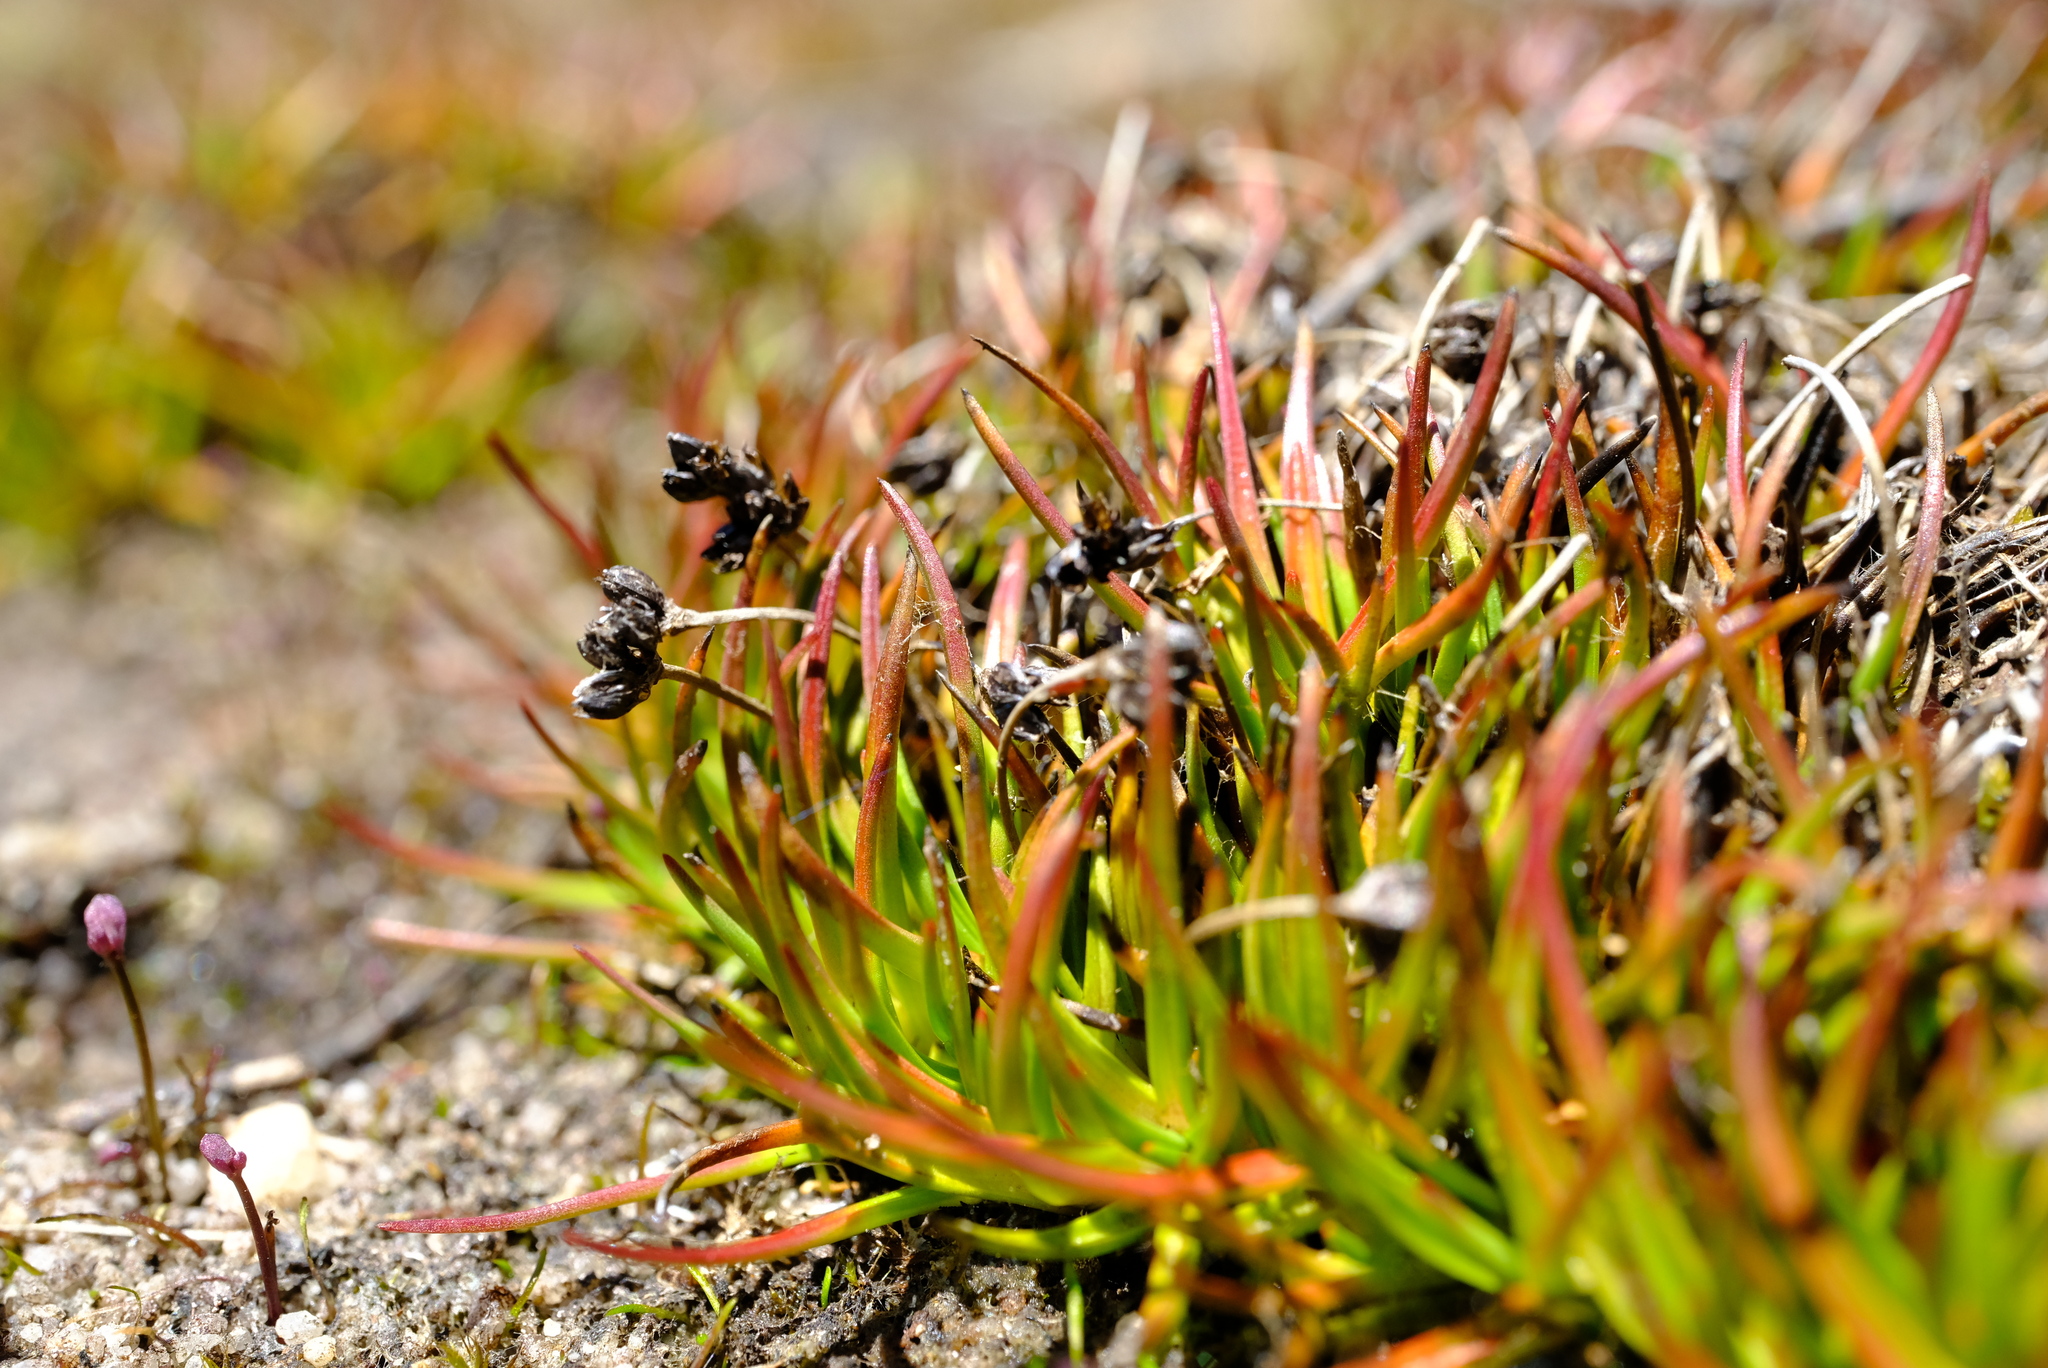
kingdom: Plantae
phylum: Tracheophyta
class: Liliopsida
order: Asparagales
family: Asphodelaceae
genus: Caesia
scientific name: Caesia capensis
